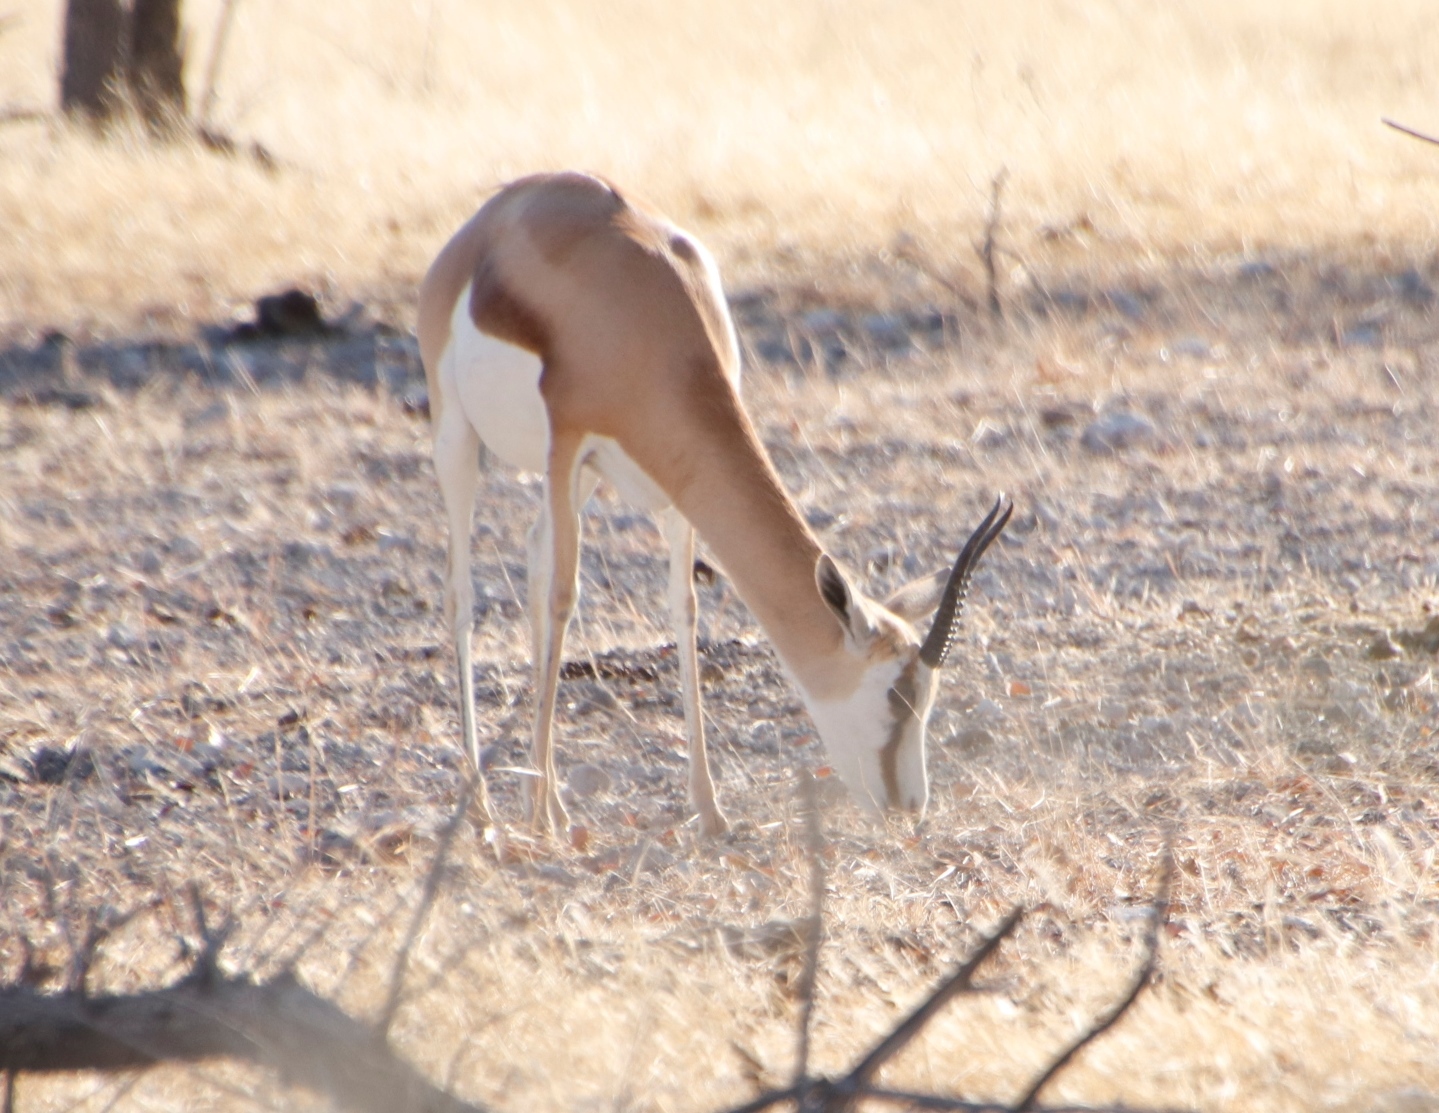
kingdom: Animalia
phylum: Chordata
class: Mammalia
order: Artiodactyla
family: Bovidae
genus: Antidorcas
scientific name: Antidorcas marsupialis
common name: Springbok
